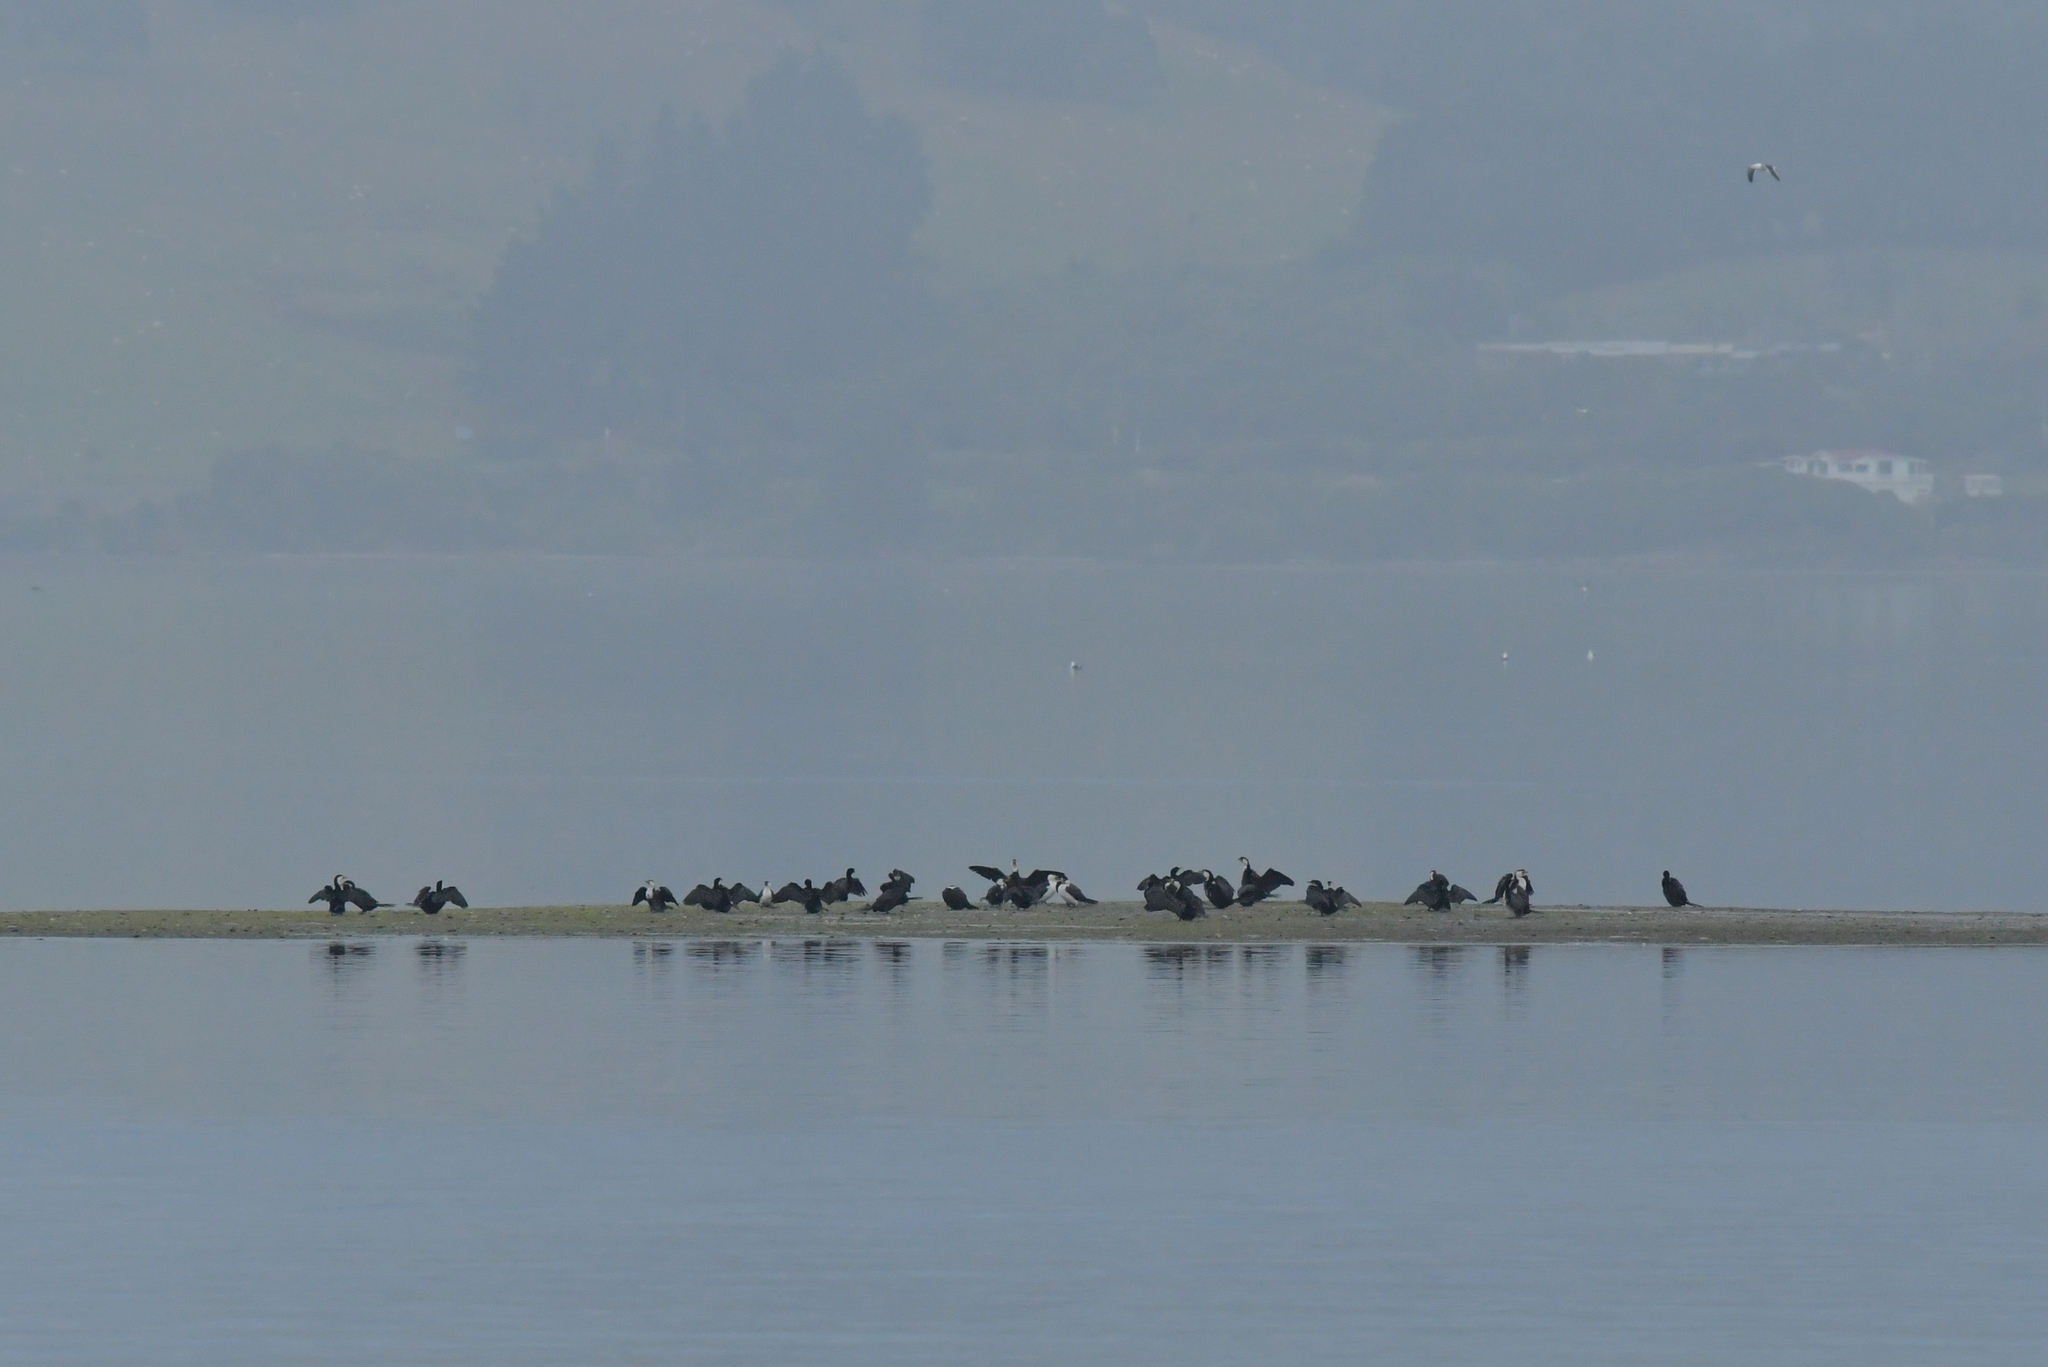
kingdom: Animalia
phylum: Chordata
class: Aves
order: Suliformes
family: Phalacrocoracidae
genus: Microcarbo
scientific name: Microcarbo melanoleucos
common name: Little pied cormorant
